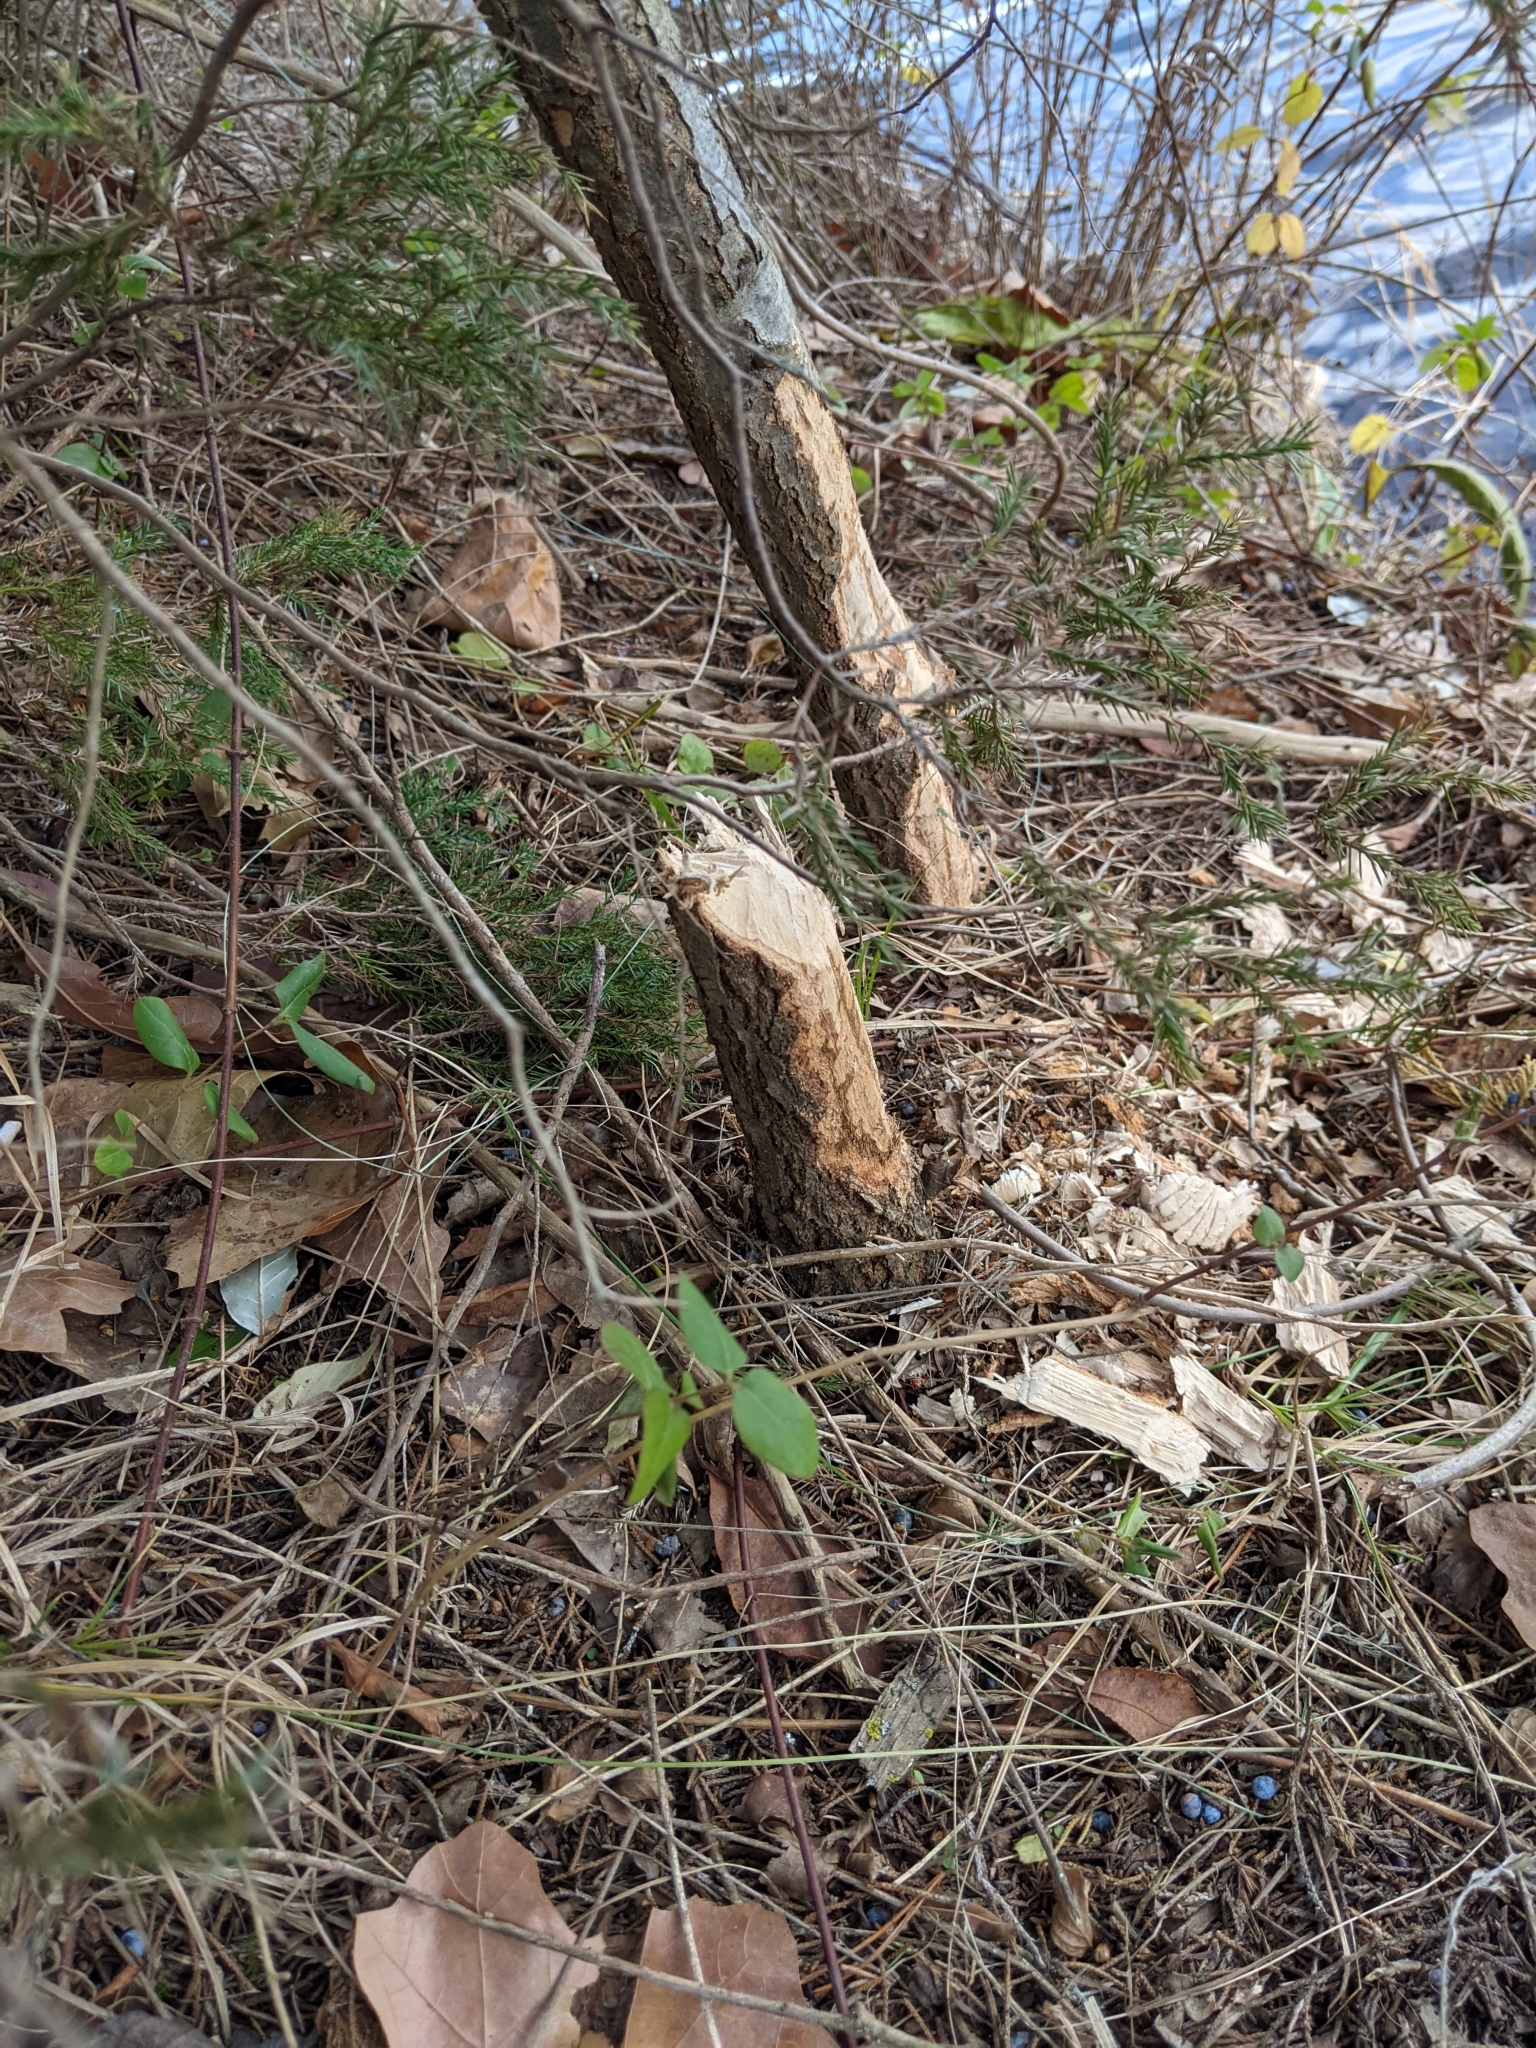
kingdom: Animalia
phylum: Chordata
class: Mammalia
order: Rodentia
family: Castoridae
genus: Castor
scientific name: Castor canadensis
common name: American beaver
